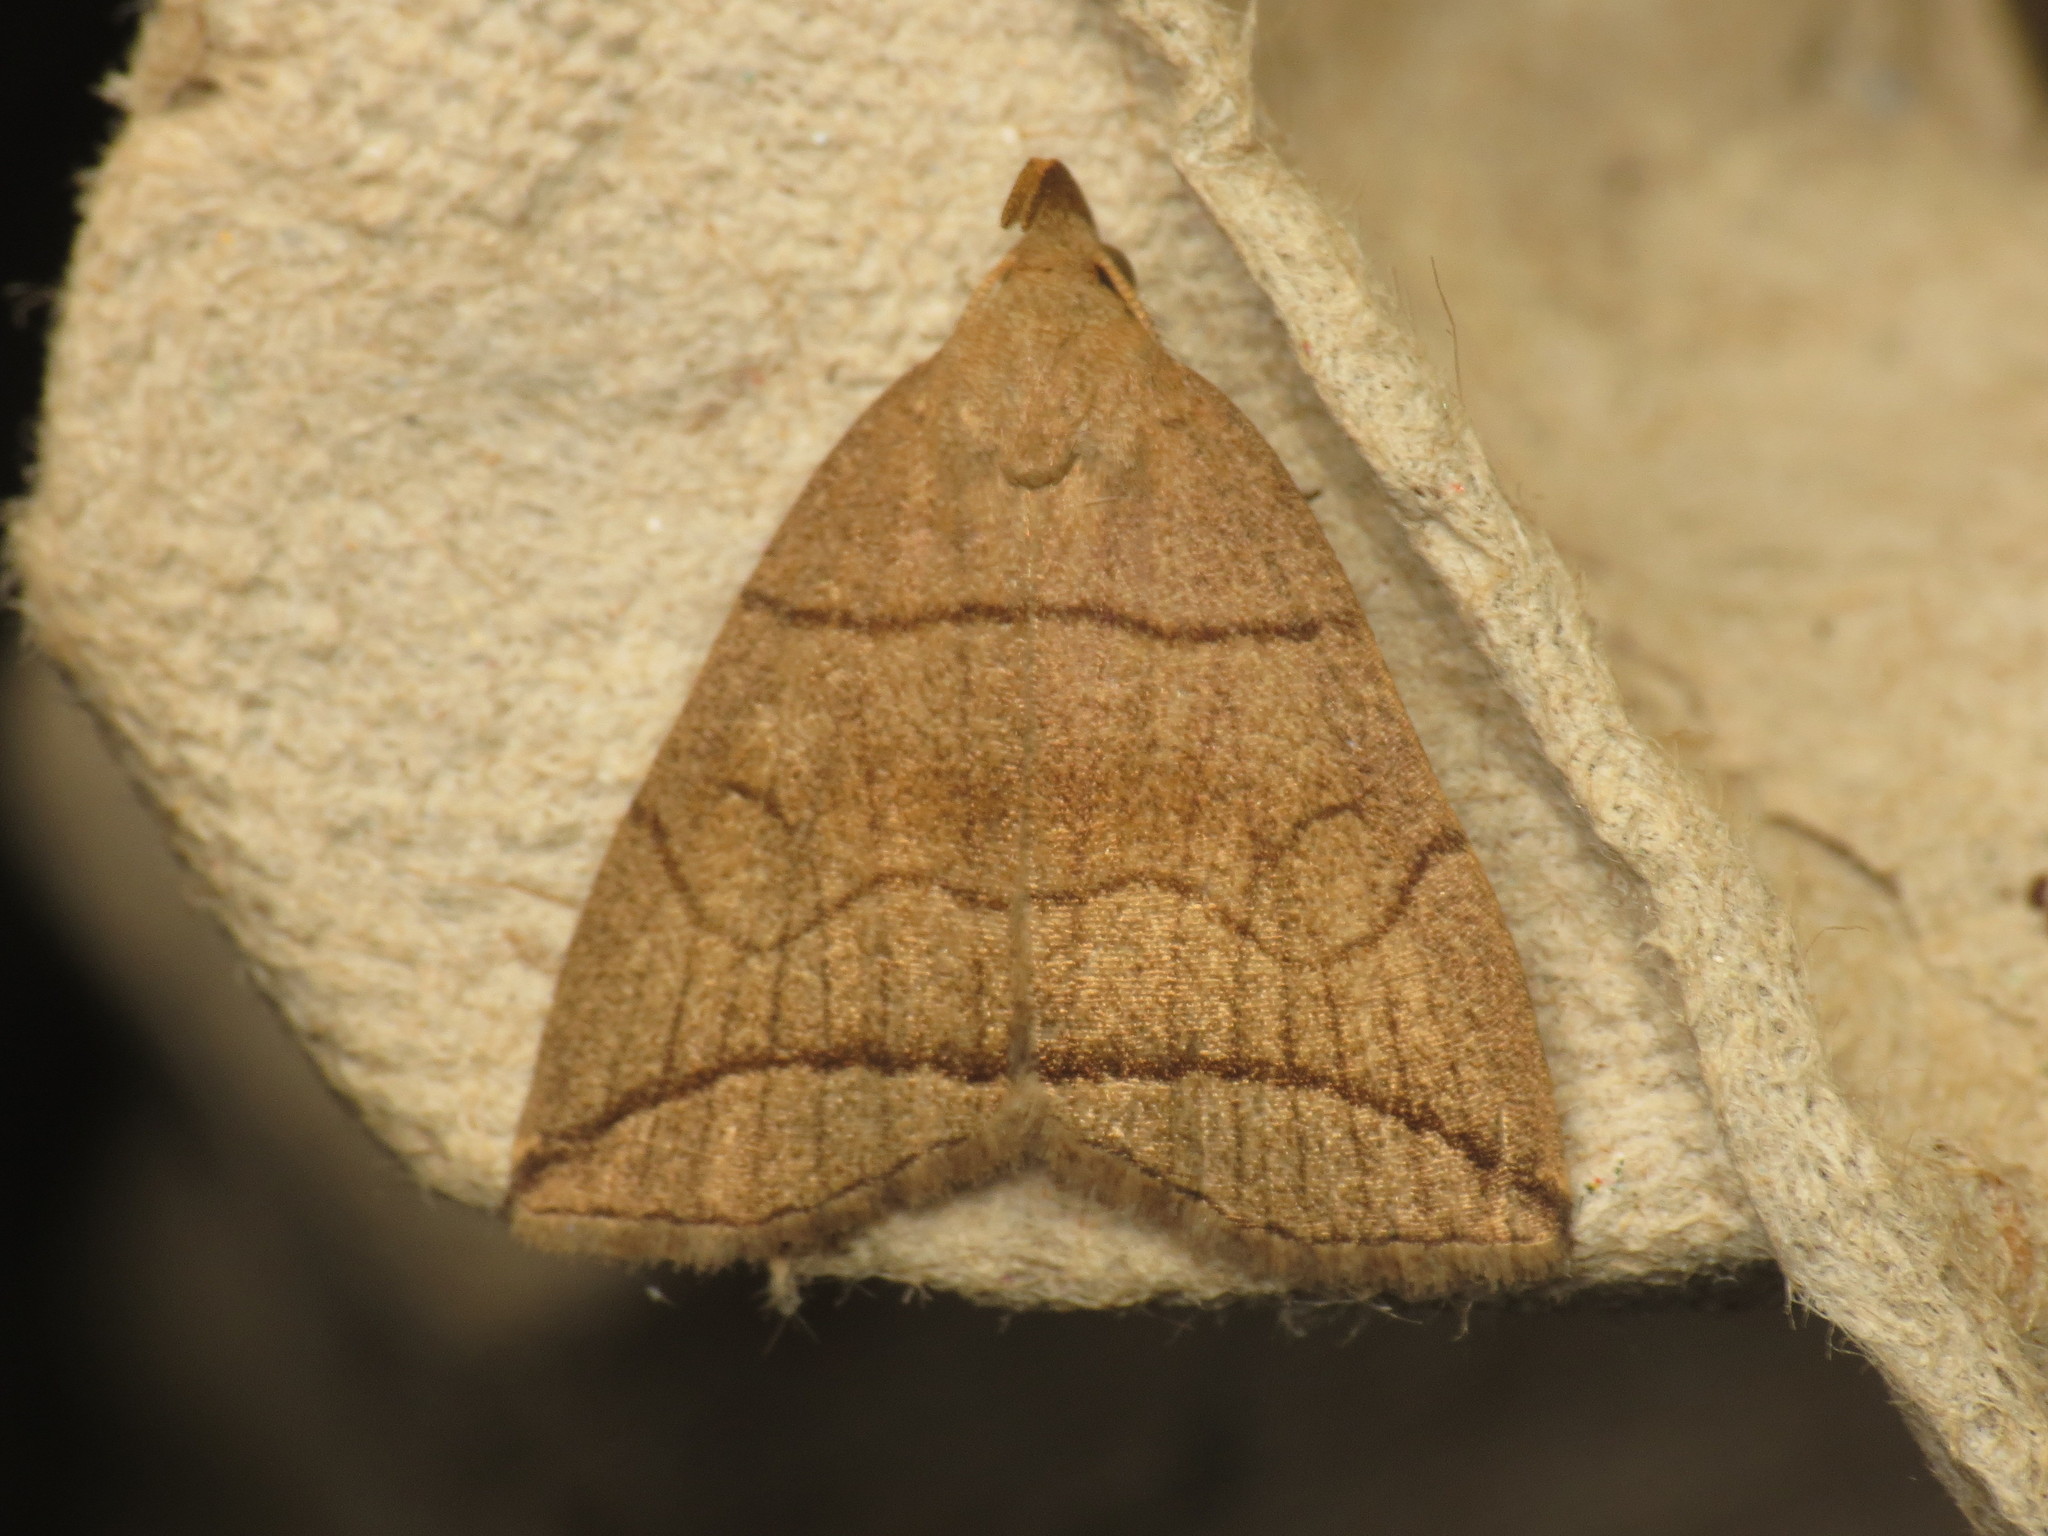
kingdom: Animalia
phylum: Arthropoda
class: Insecta
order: Lepidoptera
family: Erebidae
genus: Herminia
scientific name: Herminia grisealis
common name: Small fan-foot
